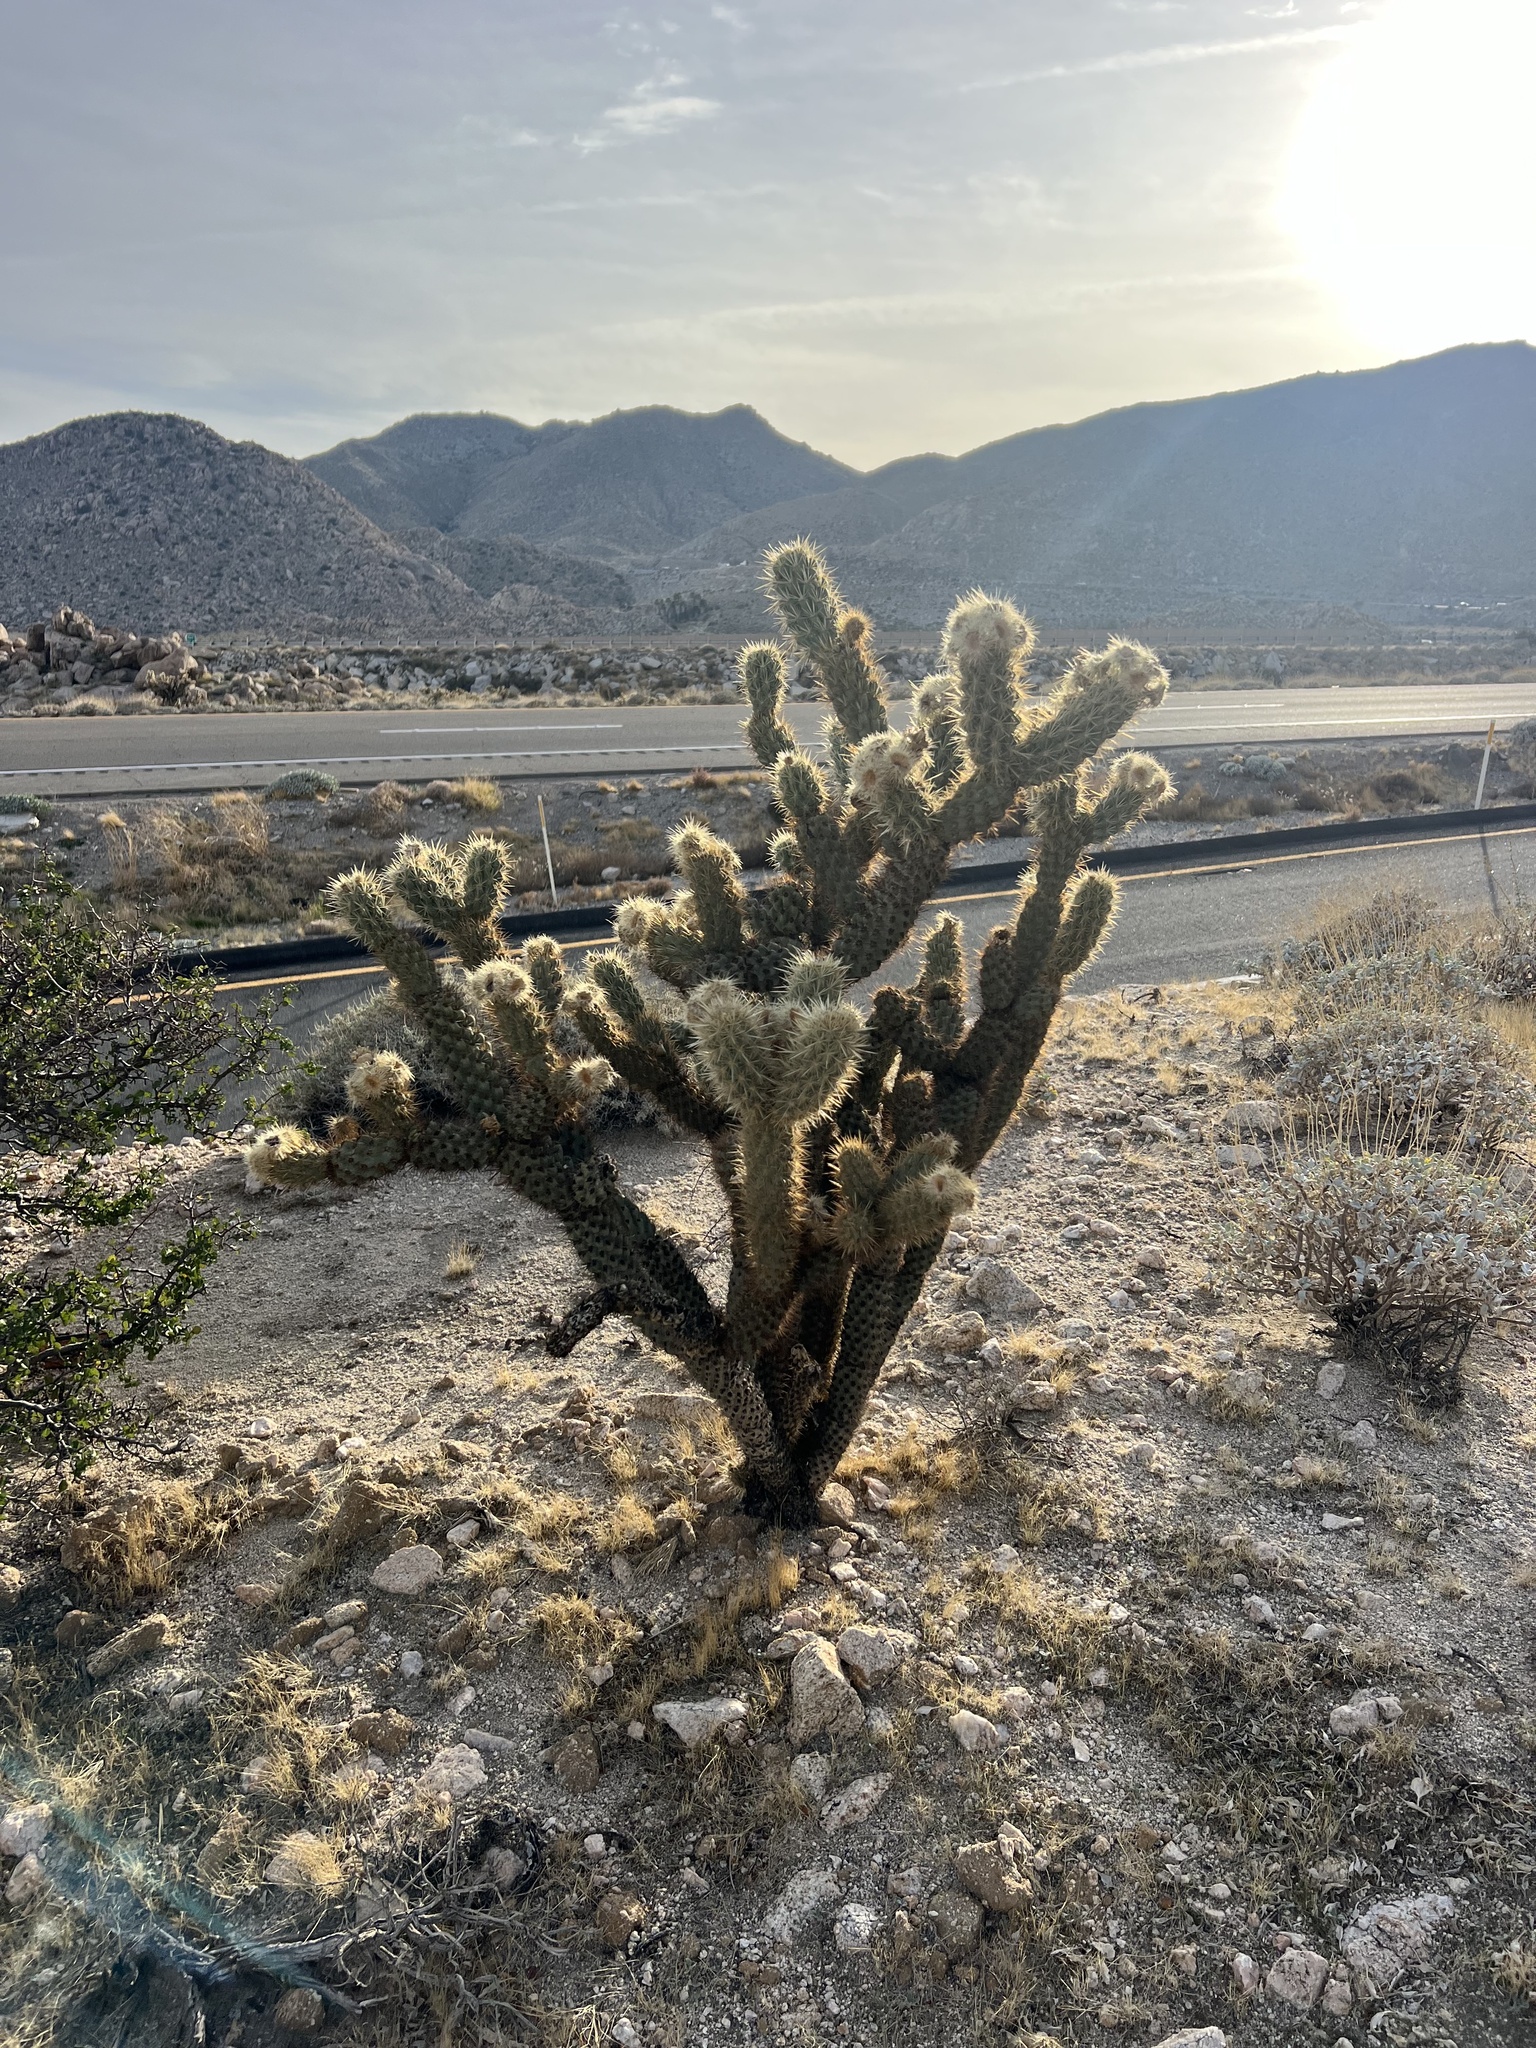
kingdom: Plantae
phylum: Tracheophyta
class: Magnoliopsida
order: Caryophyllales
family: Cactaceae
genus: Cylindropuntia
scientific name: Cylindropuntia wolfii
